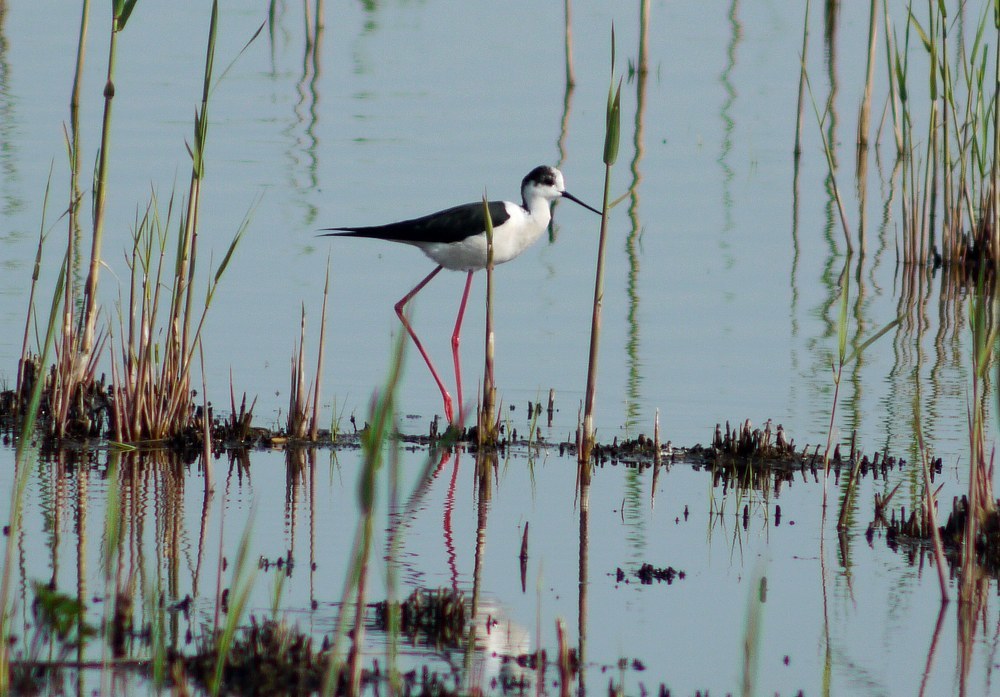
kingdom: Animalia
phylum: Chordata
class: Aves
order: Charadriiformes
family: Recurvirostridae
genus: Himantopus
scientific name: Himantopus himantopus
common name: Black-winged stilt
